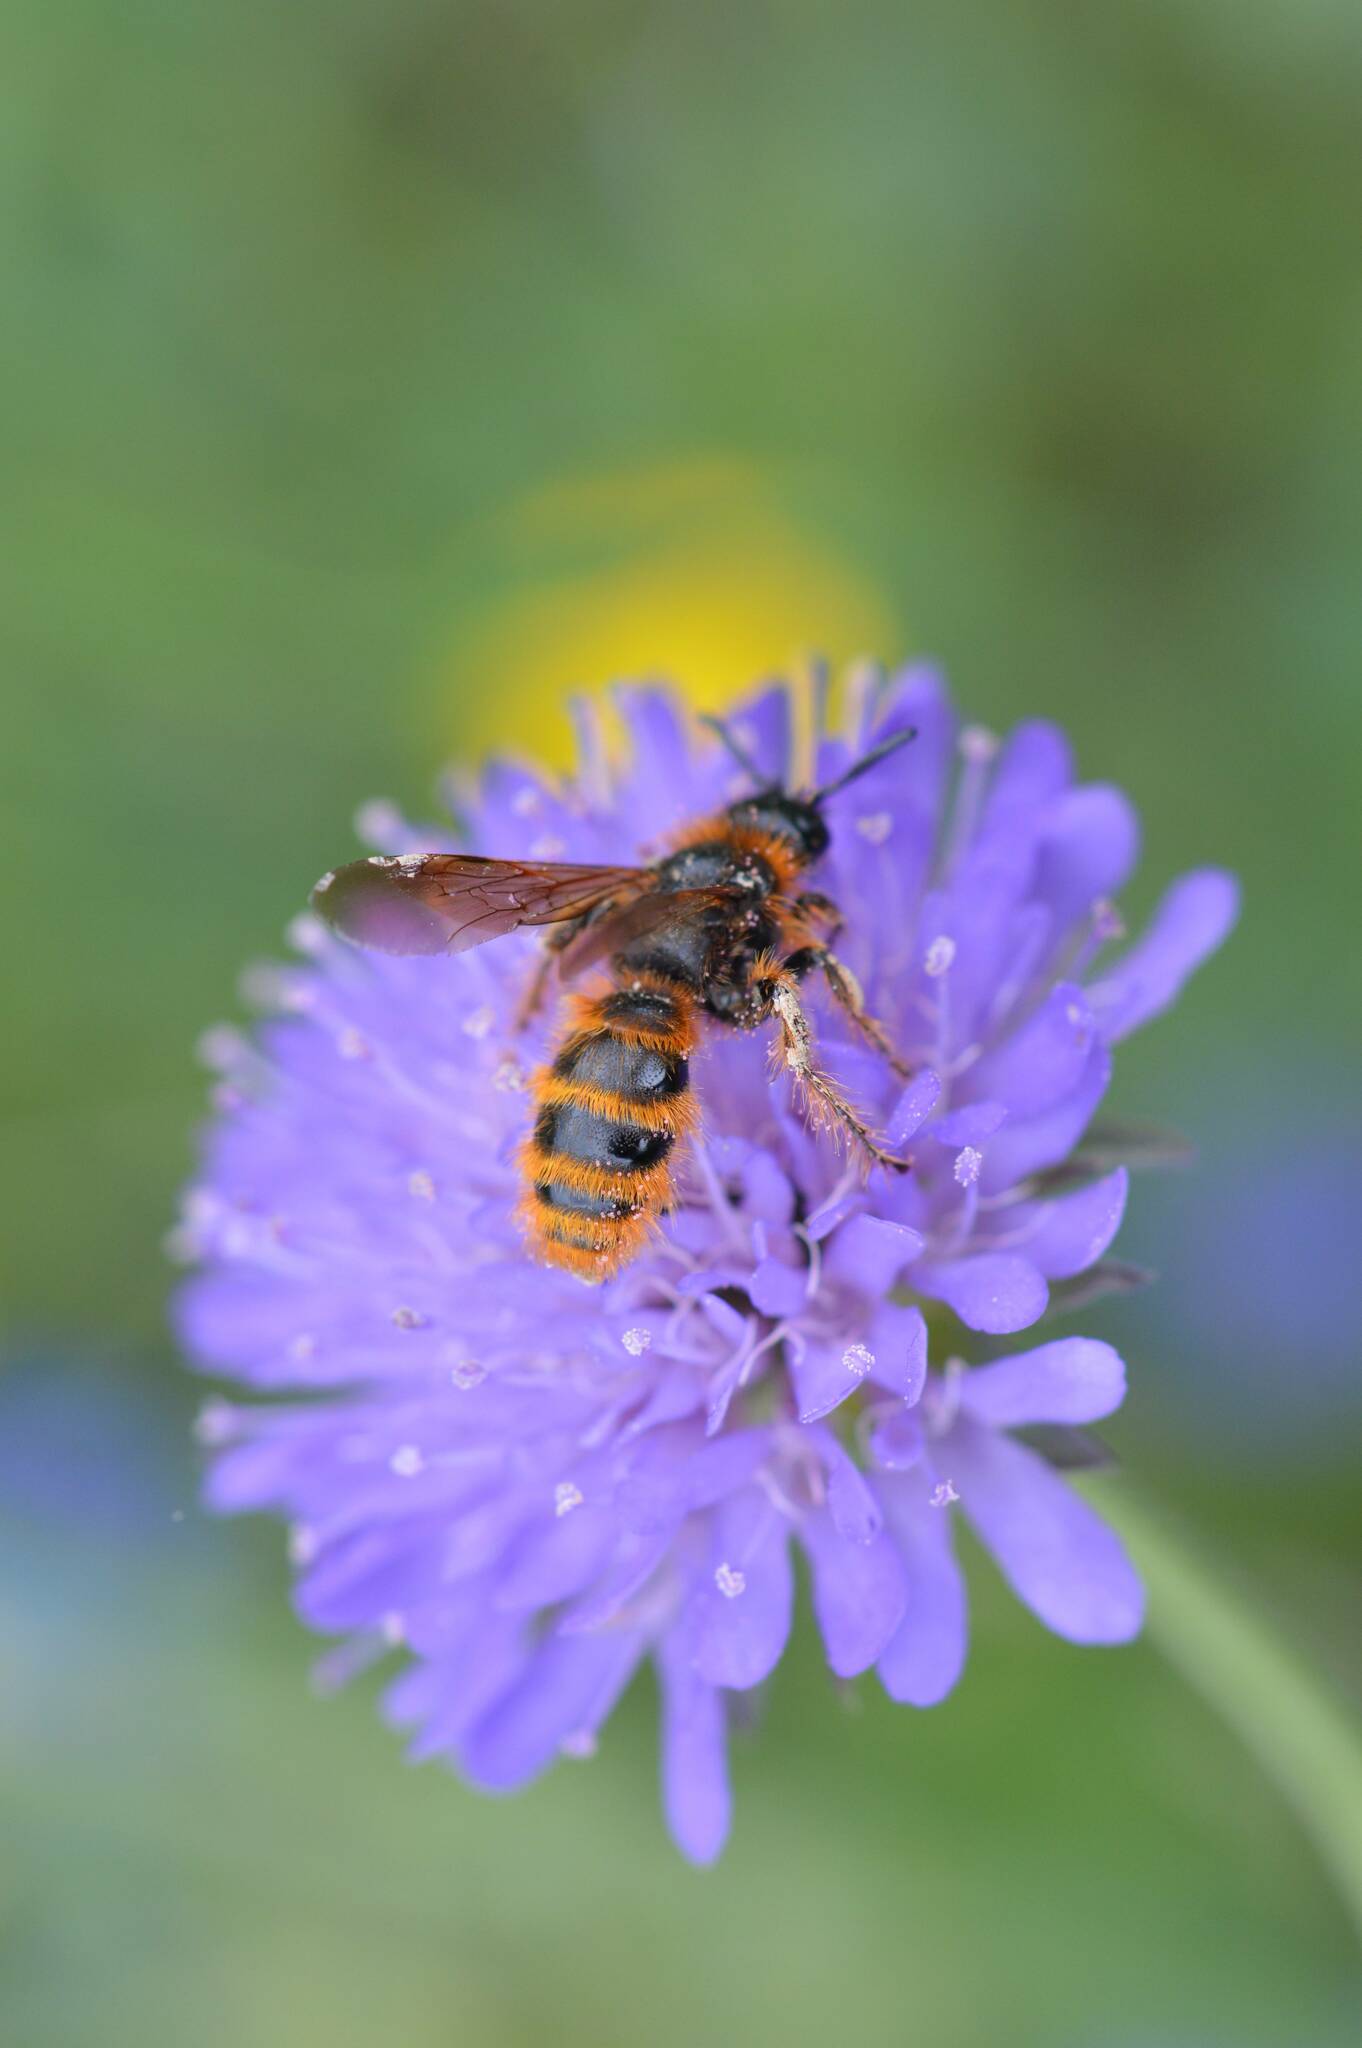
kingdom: Animalia
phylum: Arthropoda
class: Insecta
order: Hymenoptera
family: Scoliidae
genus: Dasyscolia
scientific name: Dasyscolia ciliata
